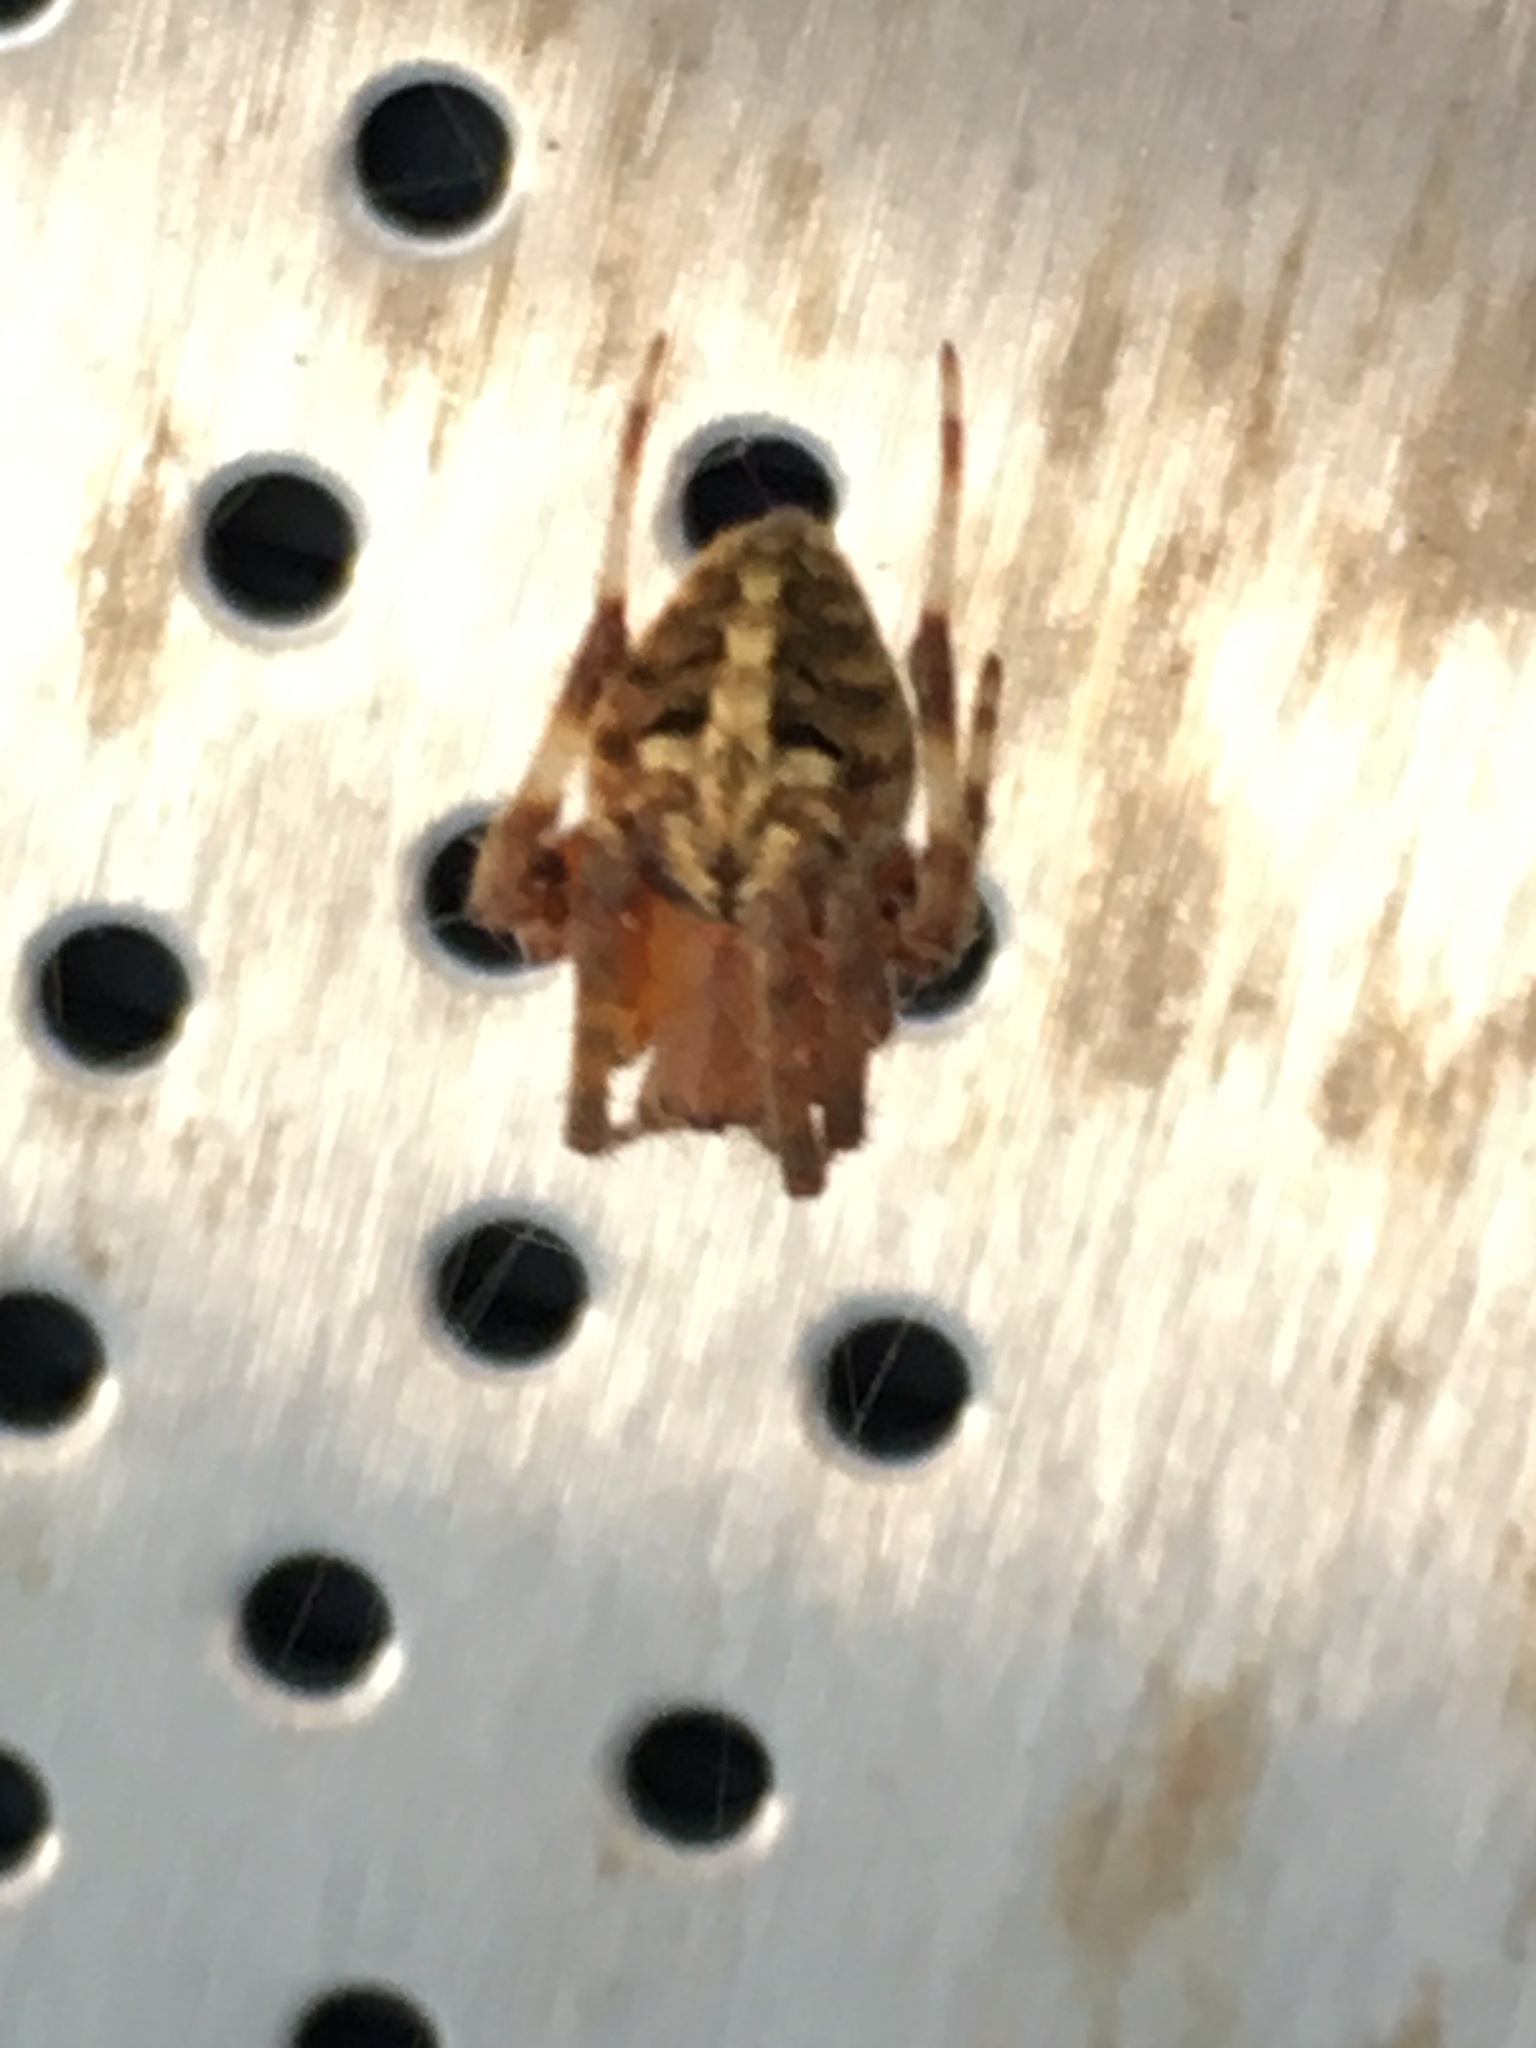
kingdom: Animalia
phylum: Arthropoda
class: Arachnida
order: Araneae
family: Araneidae
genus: Neoscona
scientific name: Neoscona crucifera
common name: Spotted orbweaver
